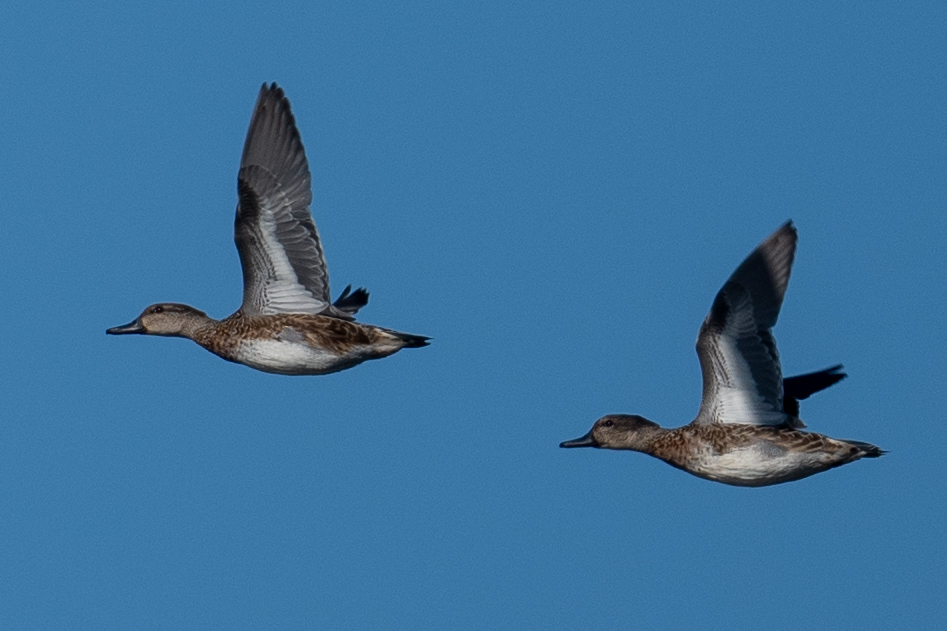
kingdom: Animalia
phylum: Chordata
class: Aves
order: Anseriformes
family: Anatidae
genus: Mareca
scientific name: Mareca americana
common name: American wigeon
